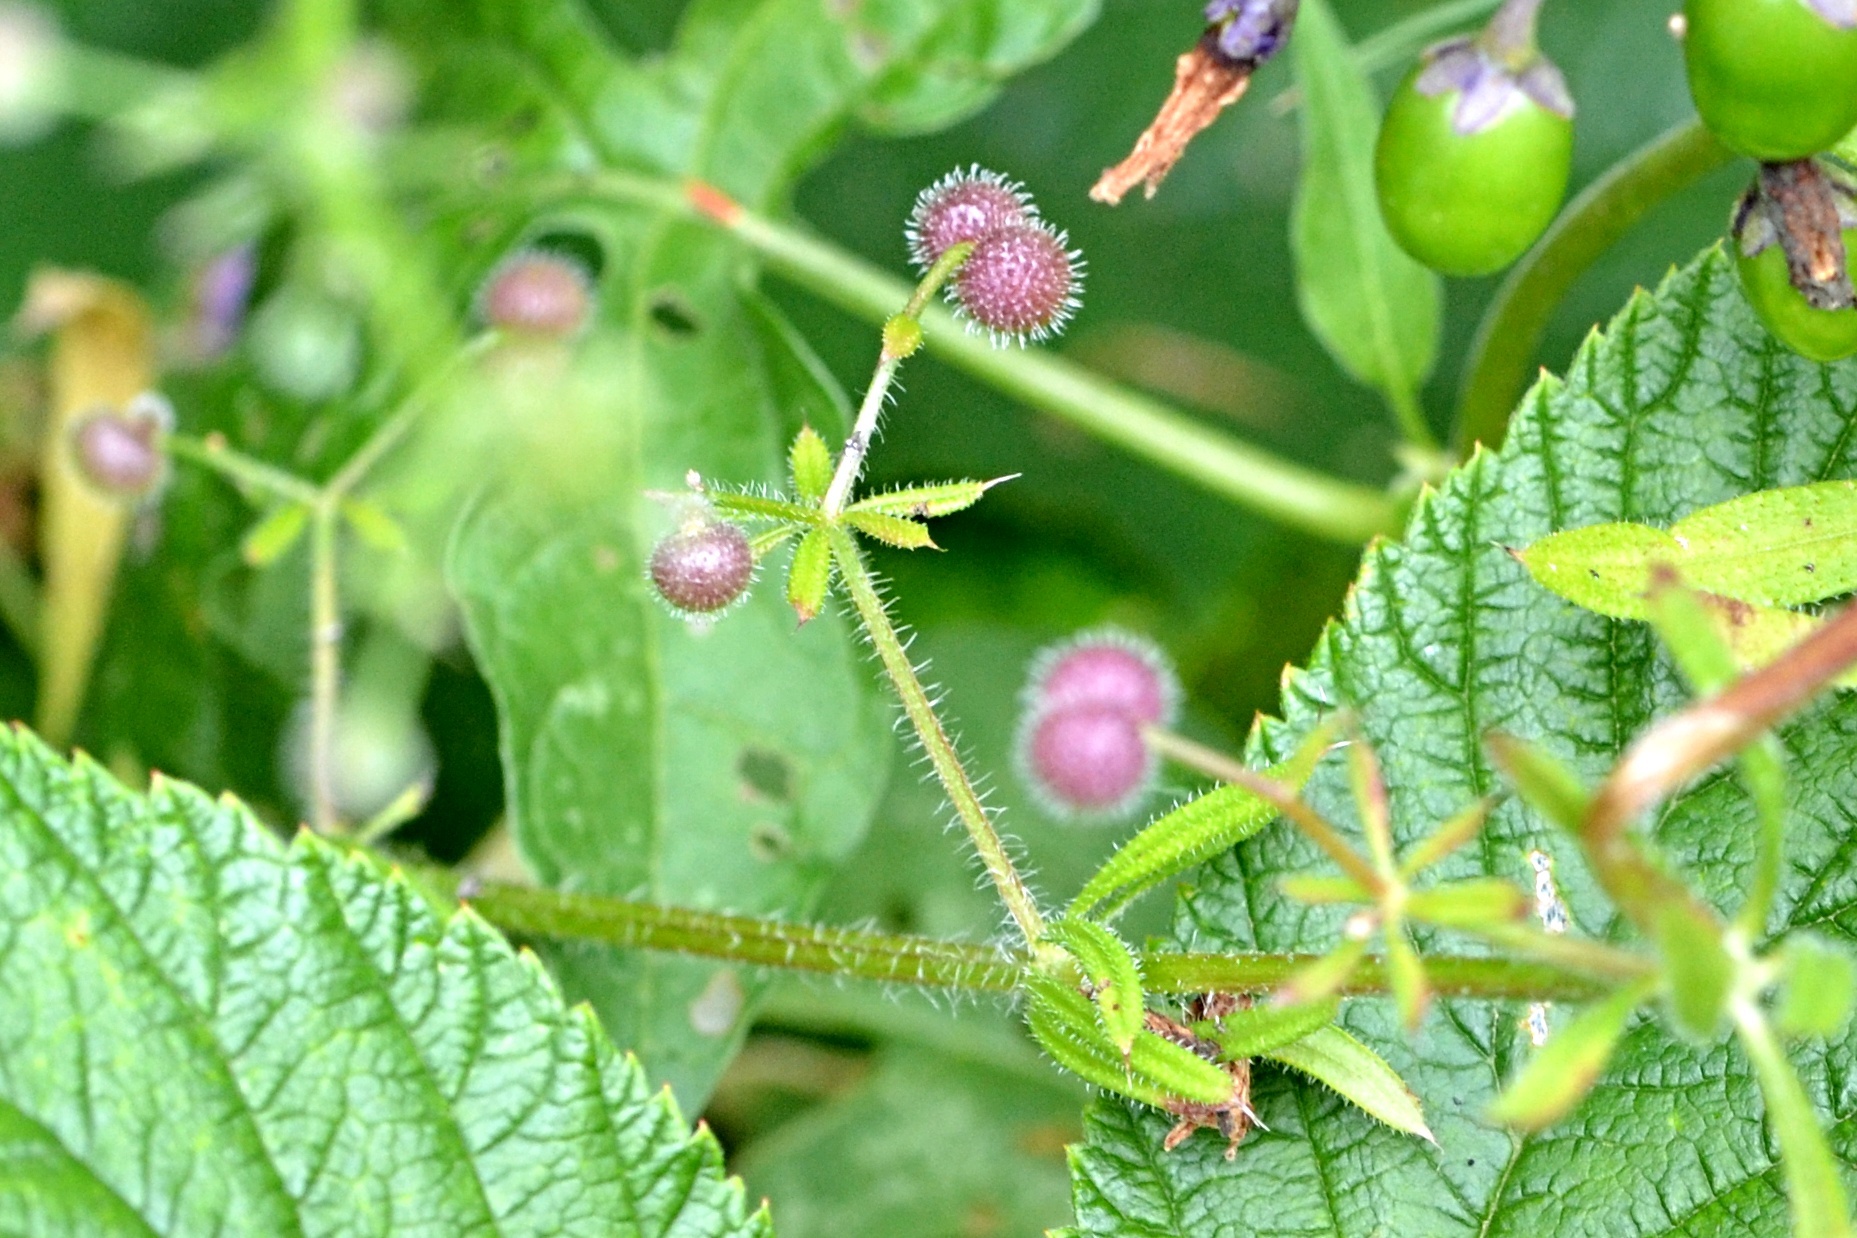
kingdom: Plantae
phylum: Tracheophyta
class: Magnoliopsida
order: Gentianales
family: Rubiaceae
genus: Galium
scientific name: Galium aparine
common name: Cleavers
